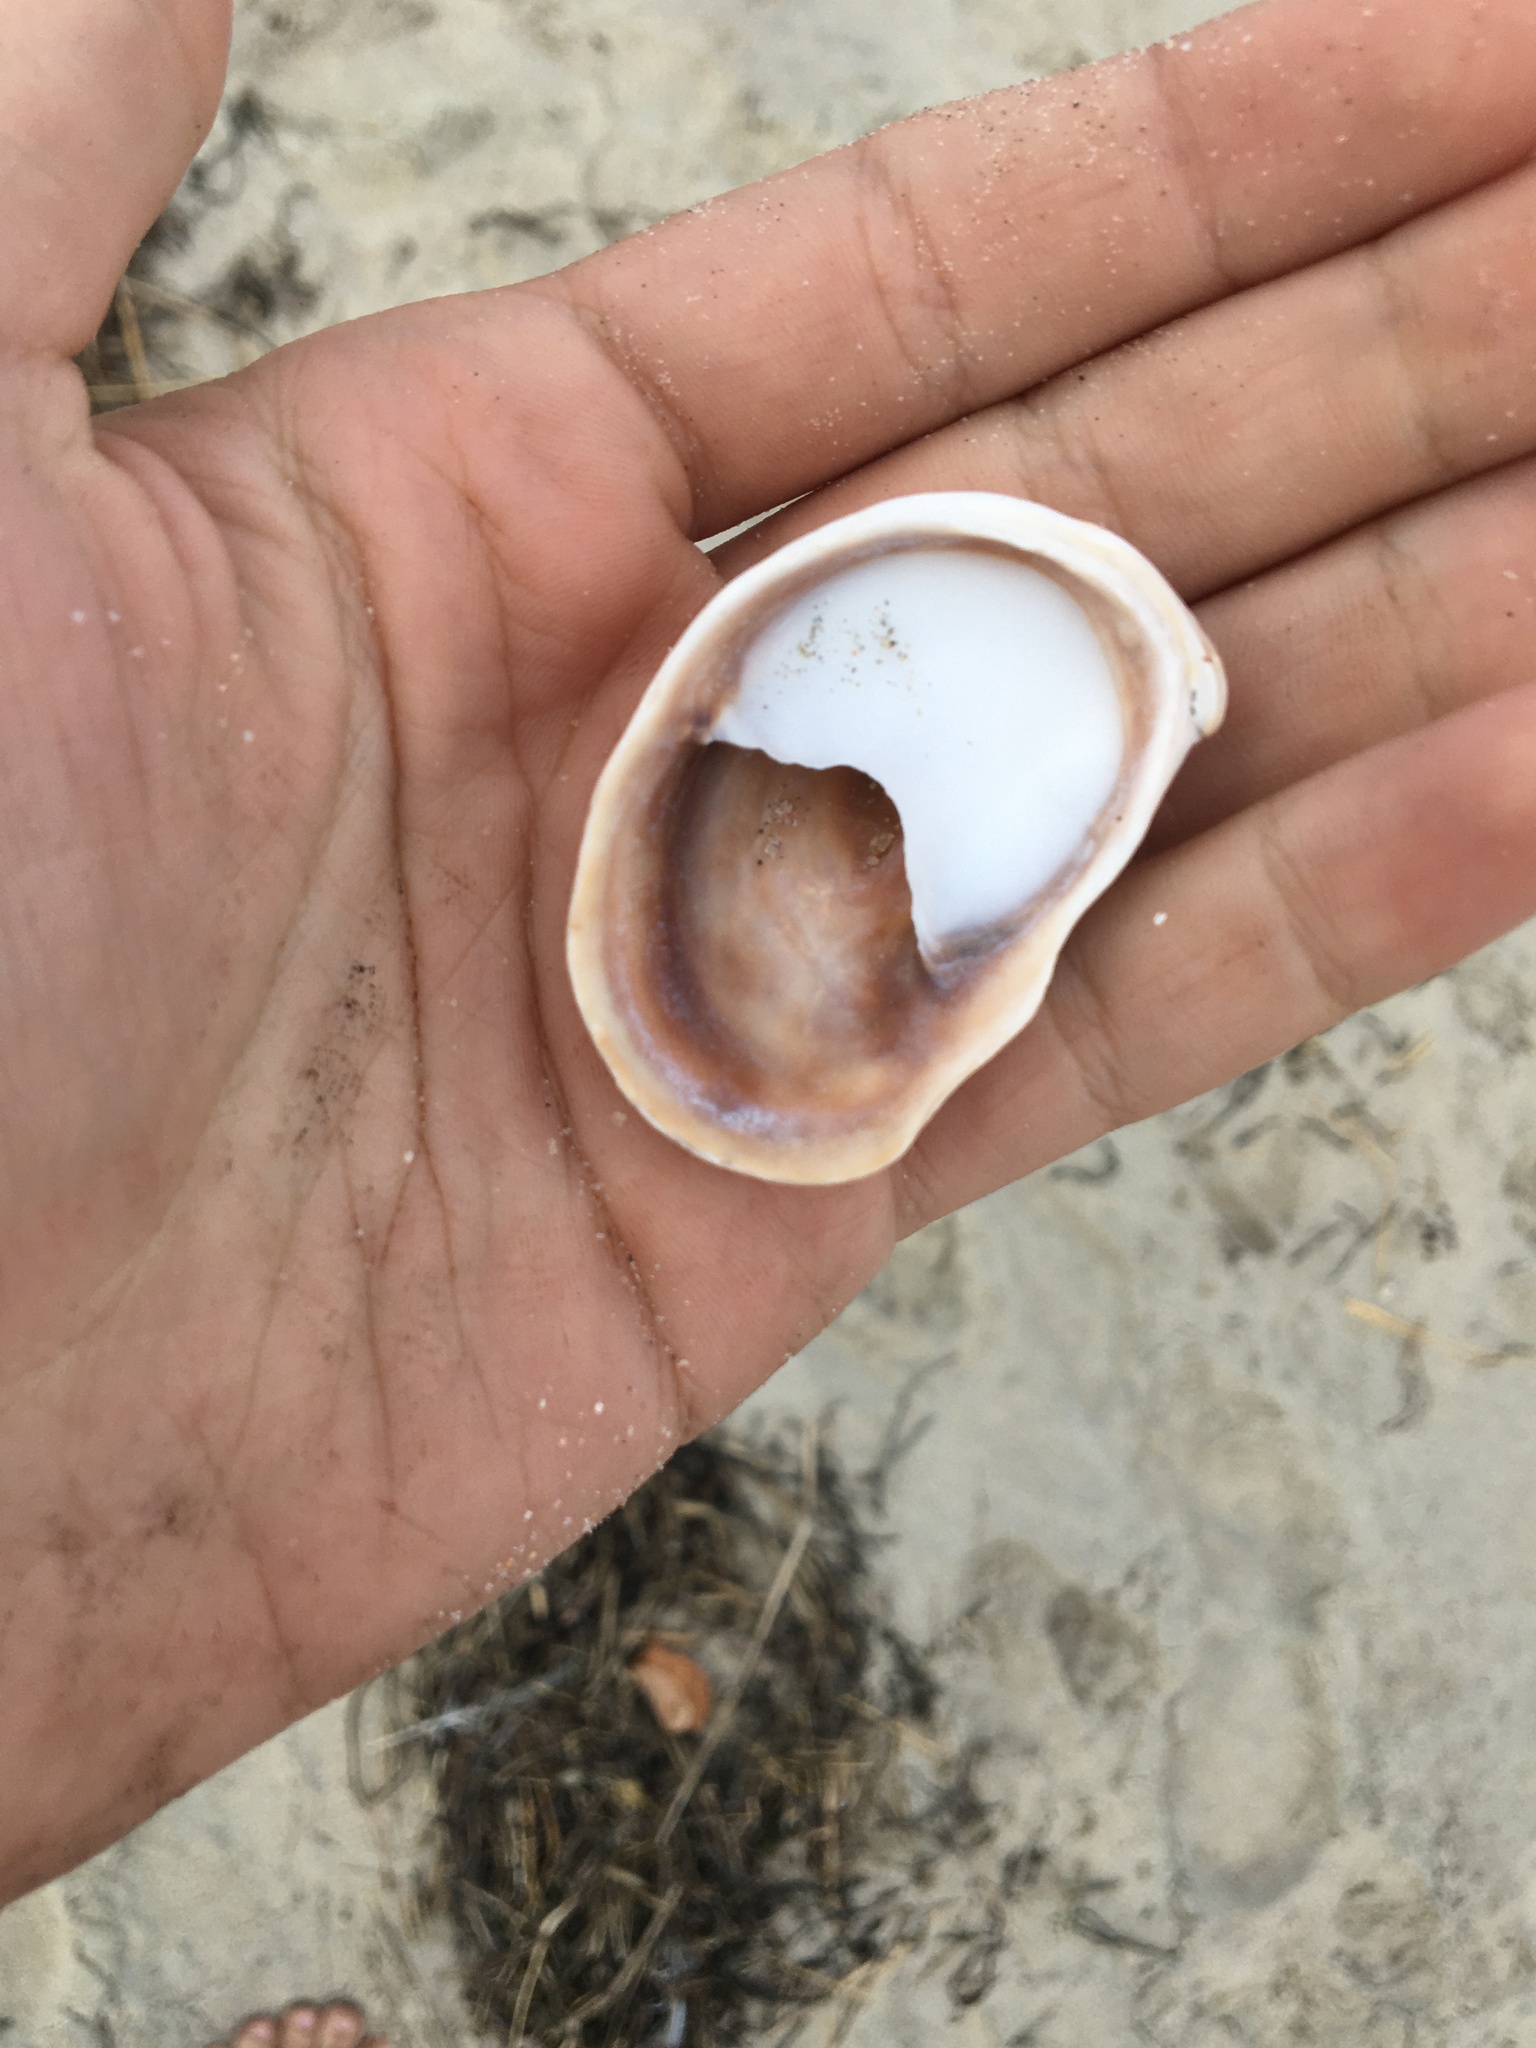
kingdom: Animalia
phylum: Mollusca
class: Gastropoda
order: Littorinimorpha
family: Calyptraeidae
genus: Crepidula
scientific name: Crepidula fornicata
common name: Slipper limpet
